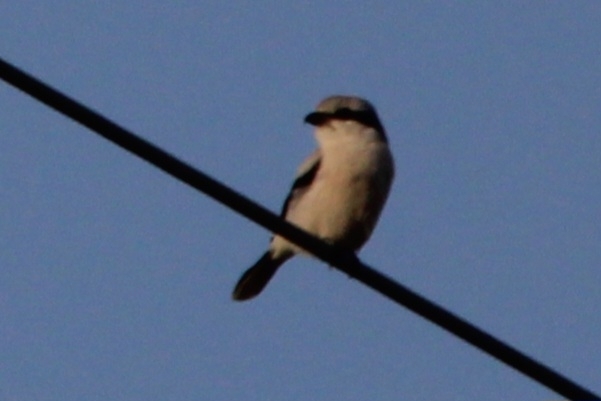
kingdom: Animalia
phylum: Chordata
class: Aves
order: Passeriformes
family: Laniidae
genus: Lanius
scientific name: Lanius excubitor
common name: Great grey shrike
